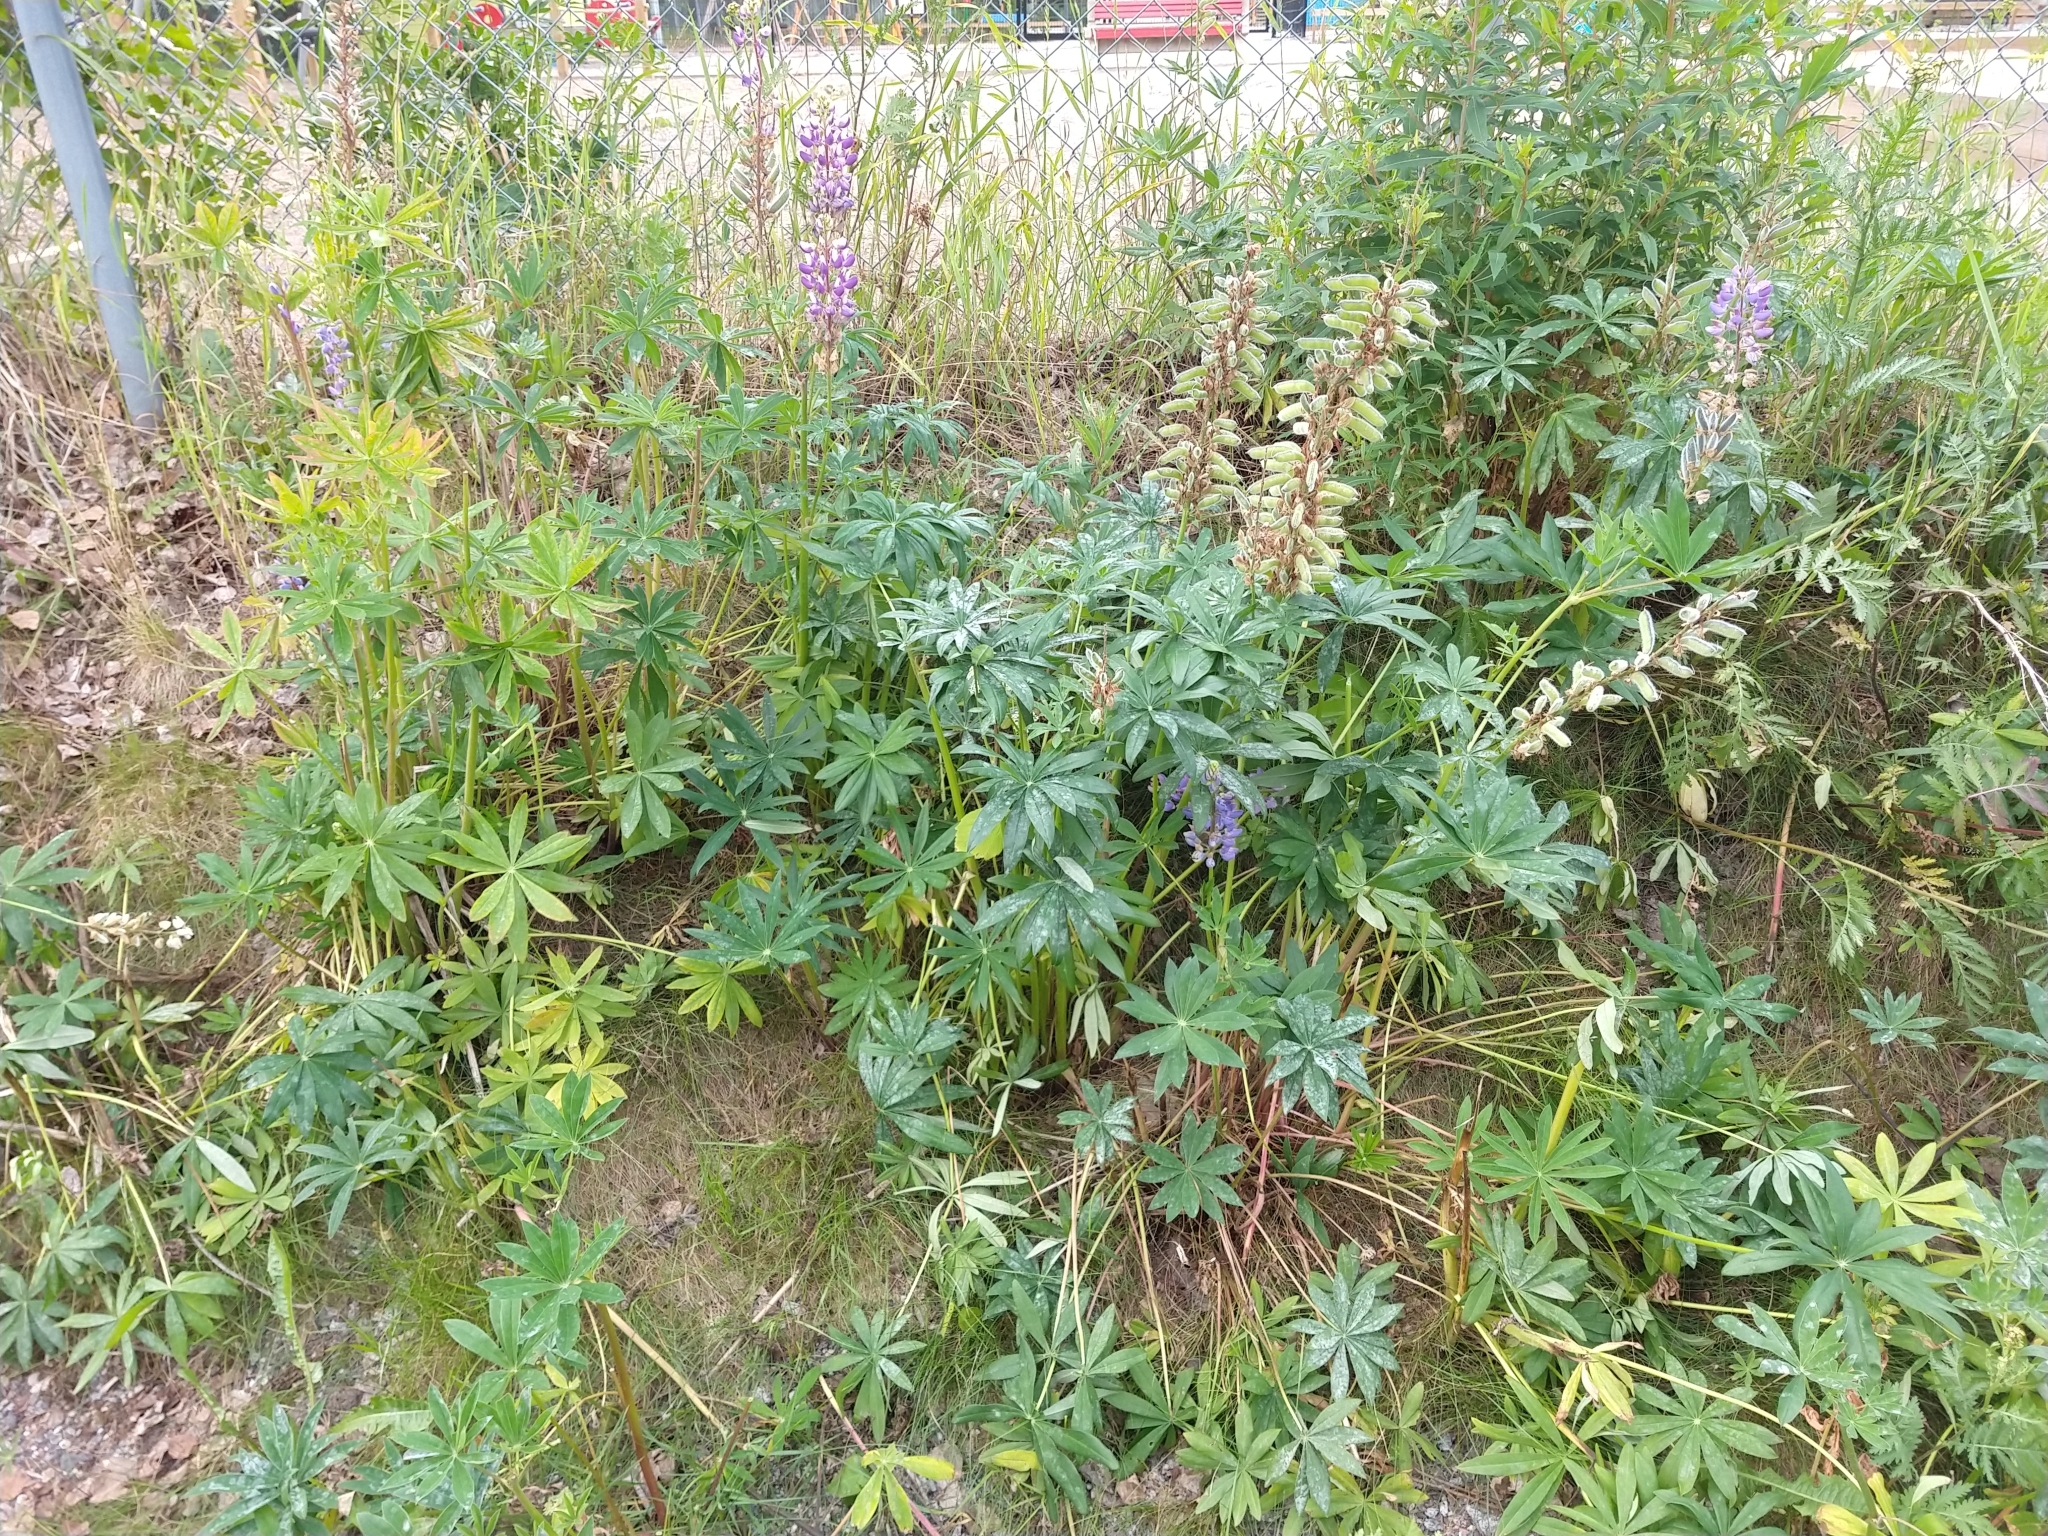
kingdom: Plantae
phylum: Tracheophyta
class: Magnoliopsida
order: Fabales
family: Fabaceae
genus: Lupinus
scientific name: Lupinus polyphyllus
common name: Garden lupin
